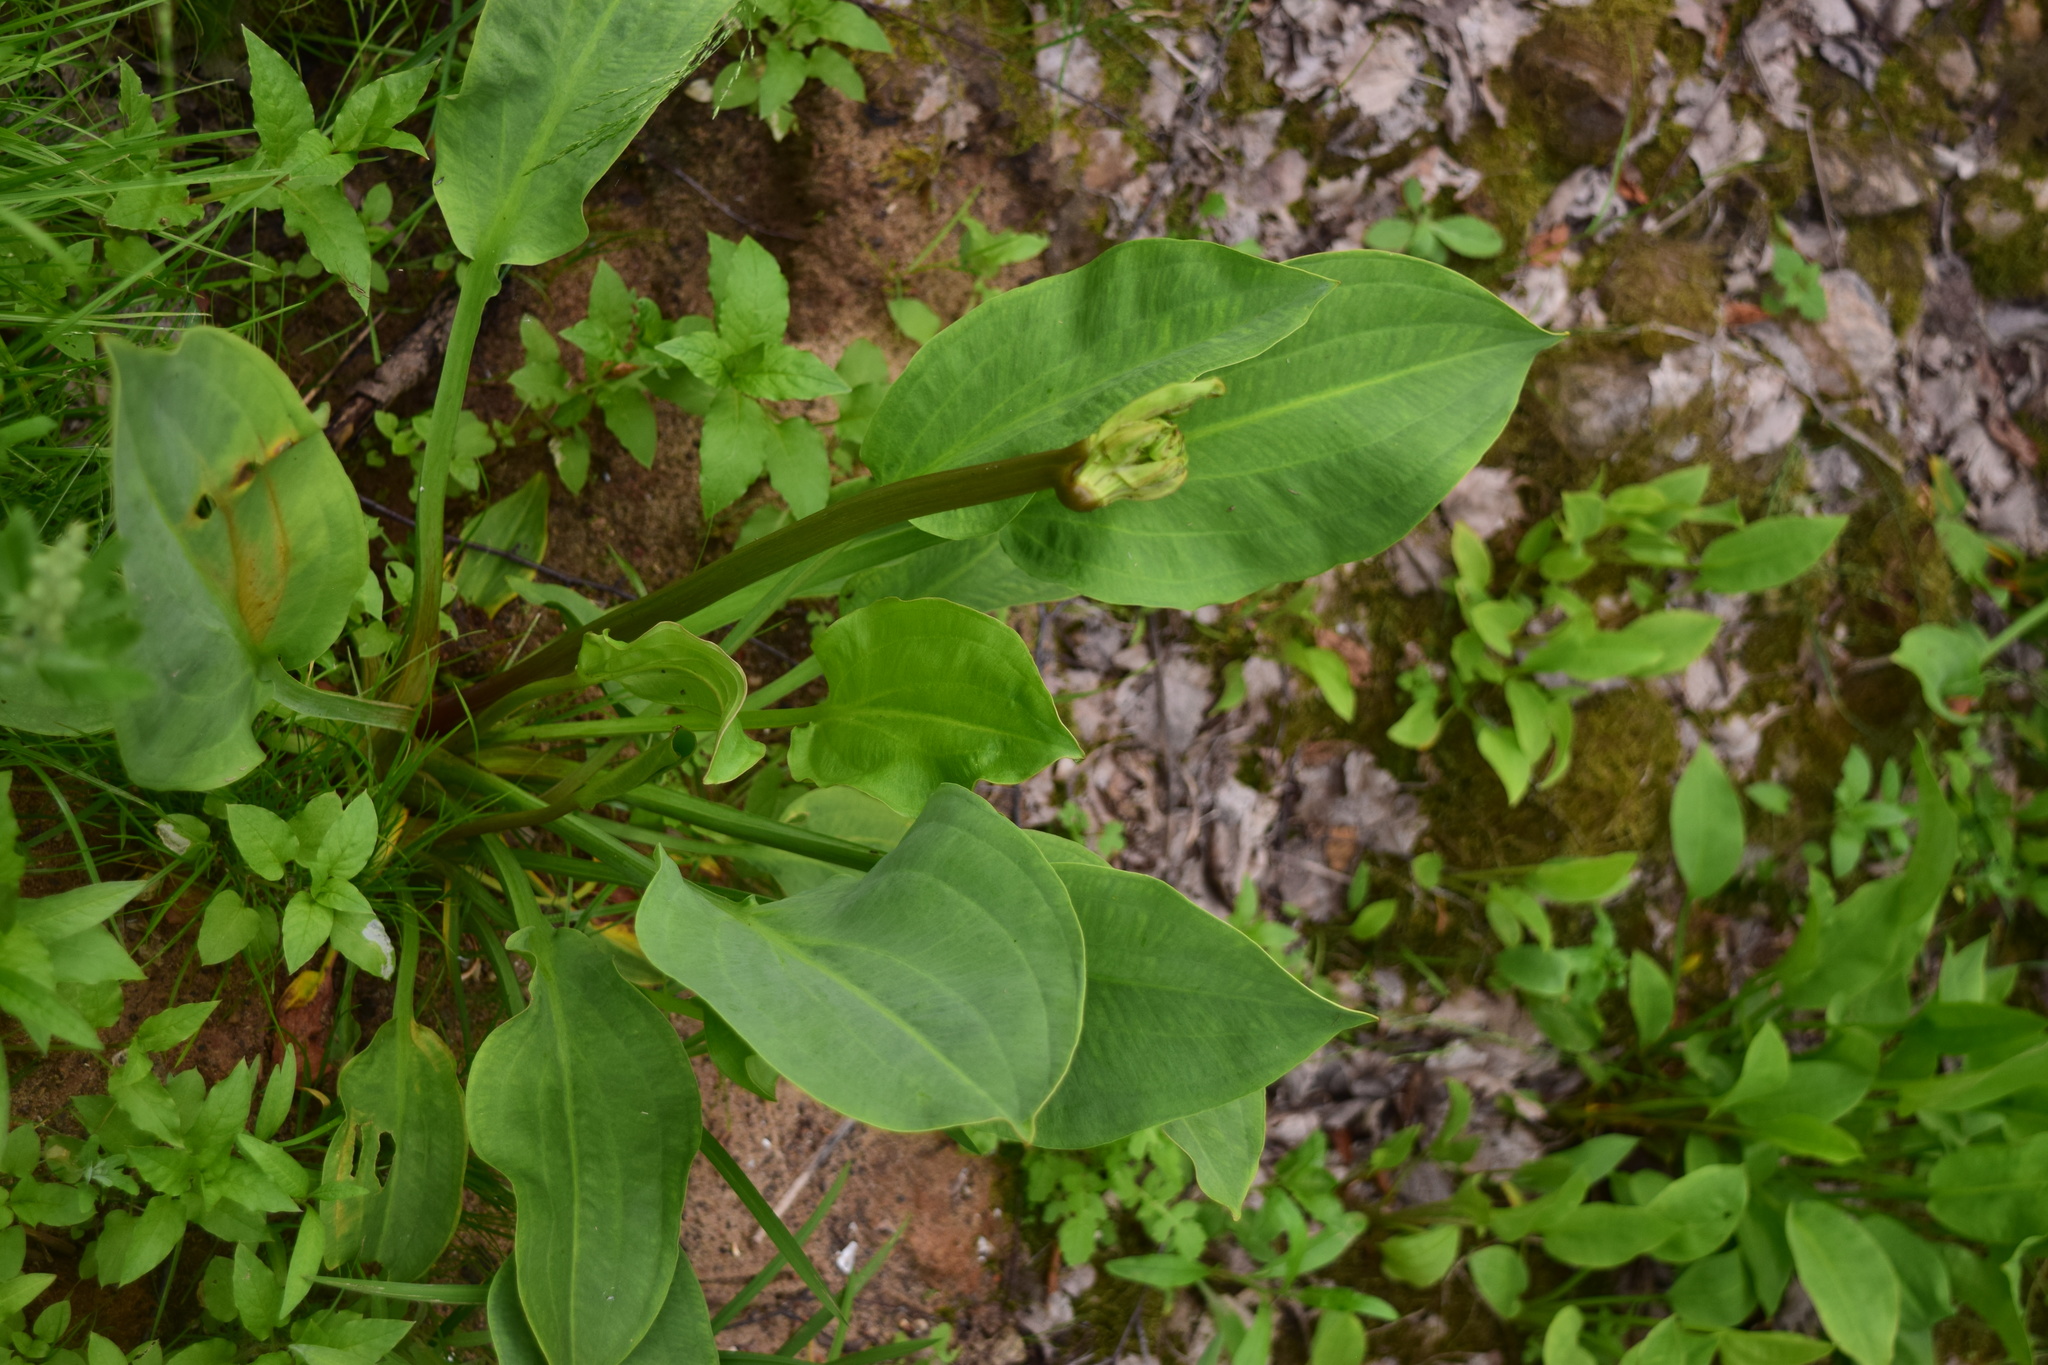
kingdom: Plantae
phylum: Tracheophyta
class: Liliopsida
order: Alismatales
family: Alismataceae
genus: Alisma
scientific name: Alisma plantago-aquatica
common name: Water-plantain
